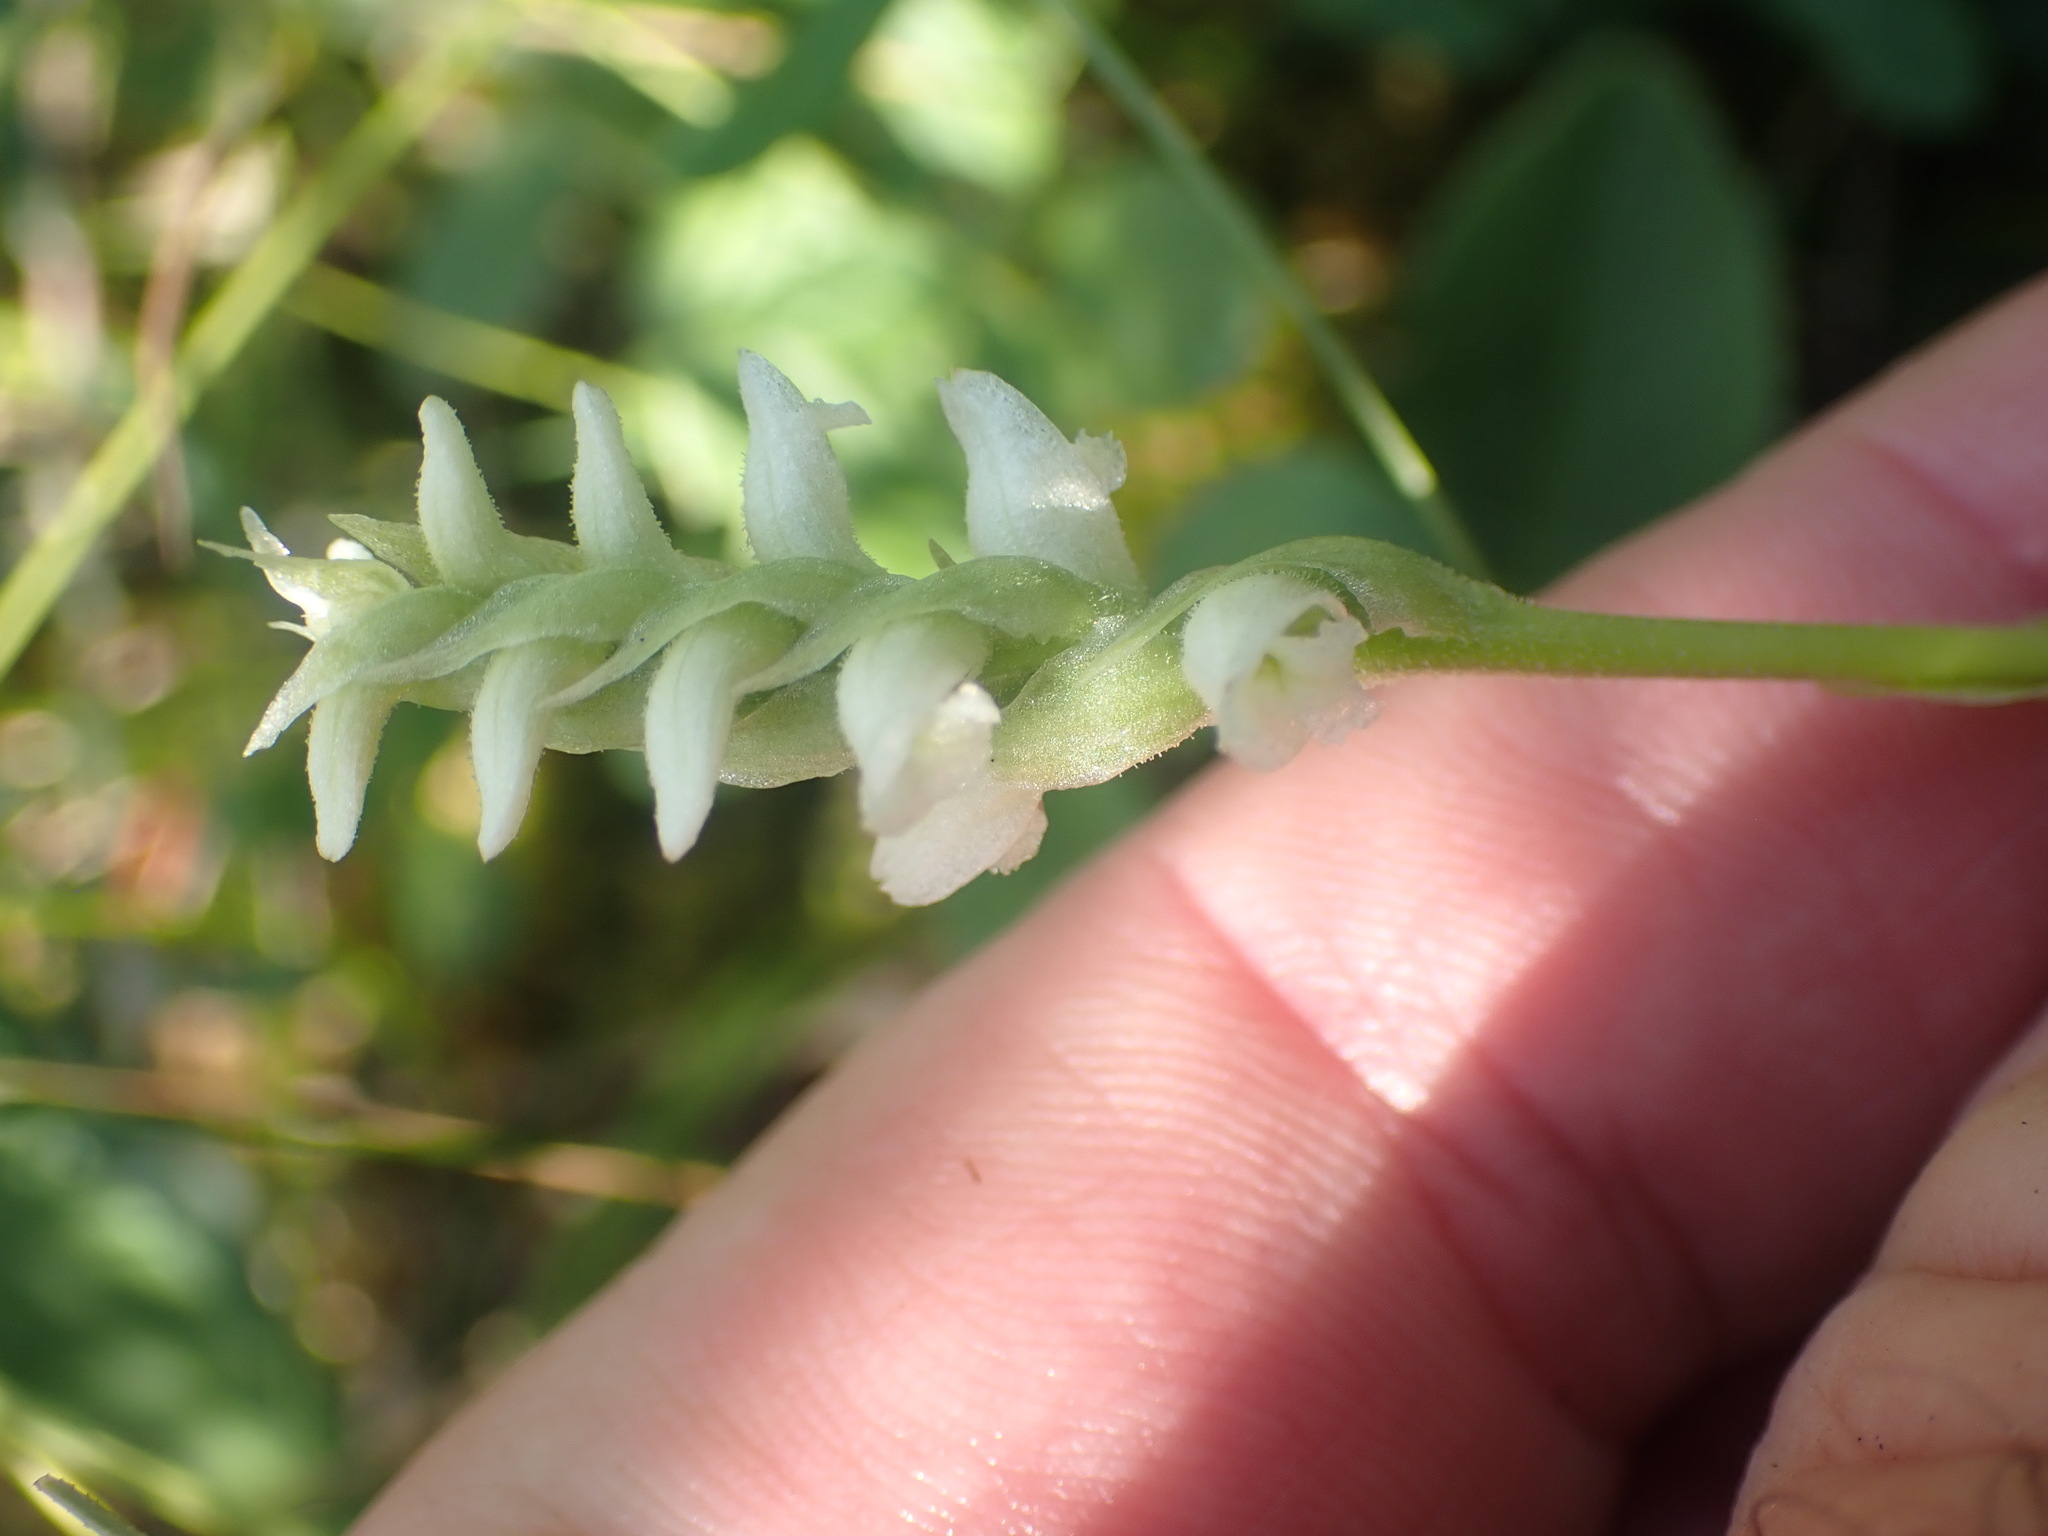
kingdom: Plantae
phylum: Tracheophyta
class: Liliopsida
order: Asparagales
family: Orchidaceae
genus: Spiranthes
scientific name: Spiranthes romanzoffiana
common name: Irish lady's-tresses
